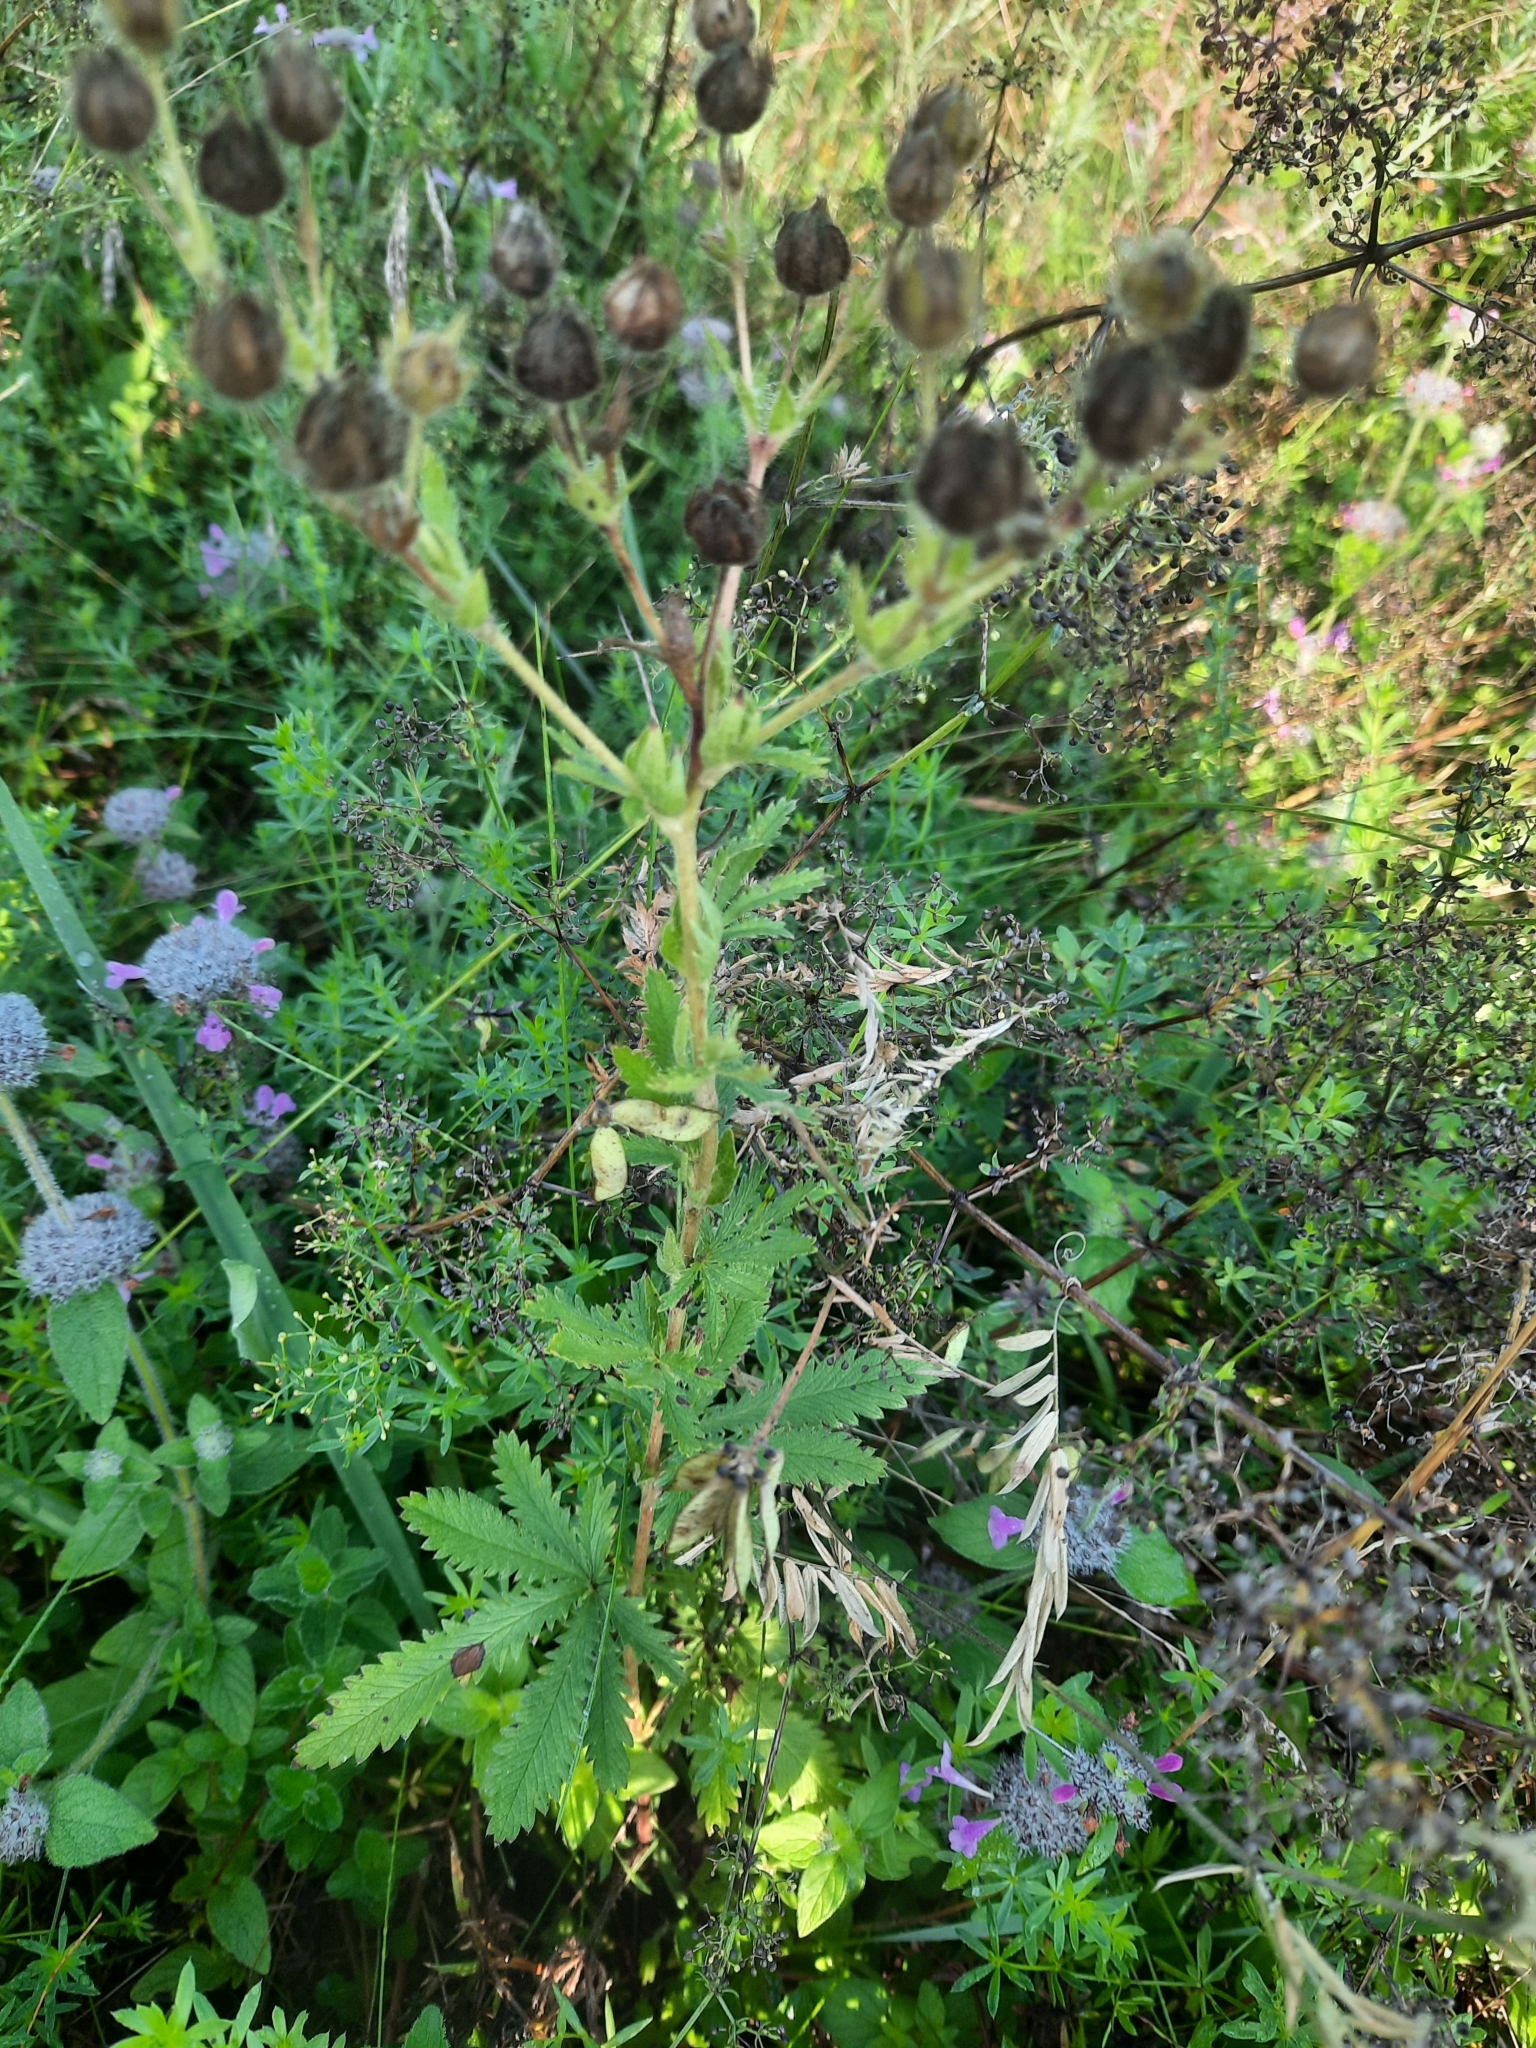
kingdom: Plantae
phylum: Tracheophyta
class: Magnoliopsida
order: Rosales
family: Rosaceae
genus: Potentilla
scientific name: Potentilla recta
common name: Sulphur cinquefoil
